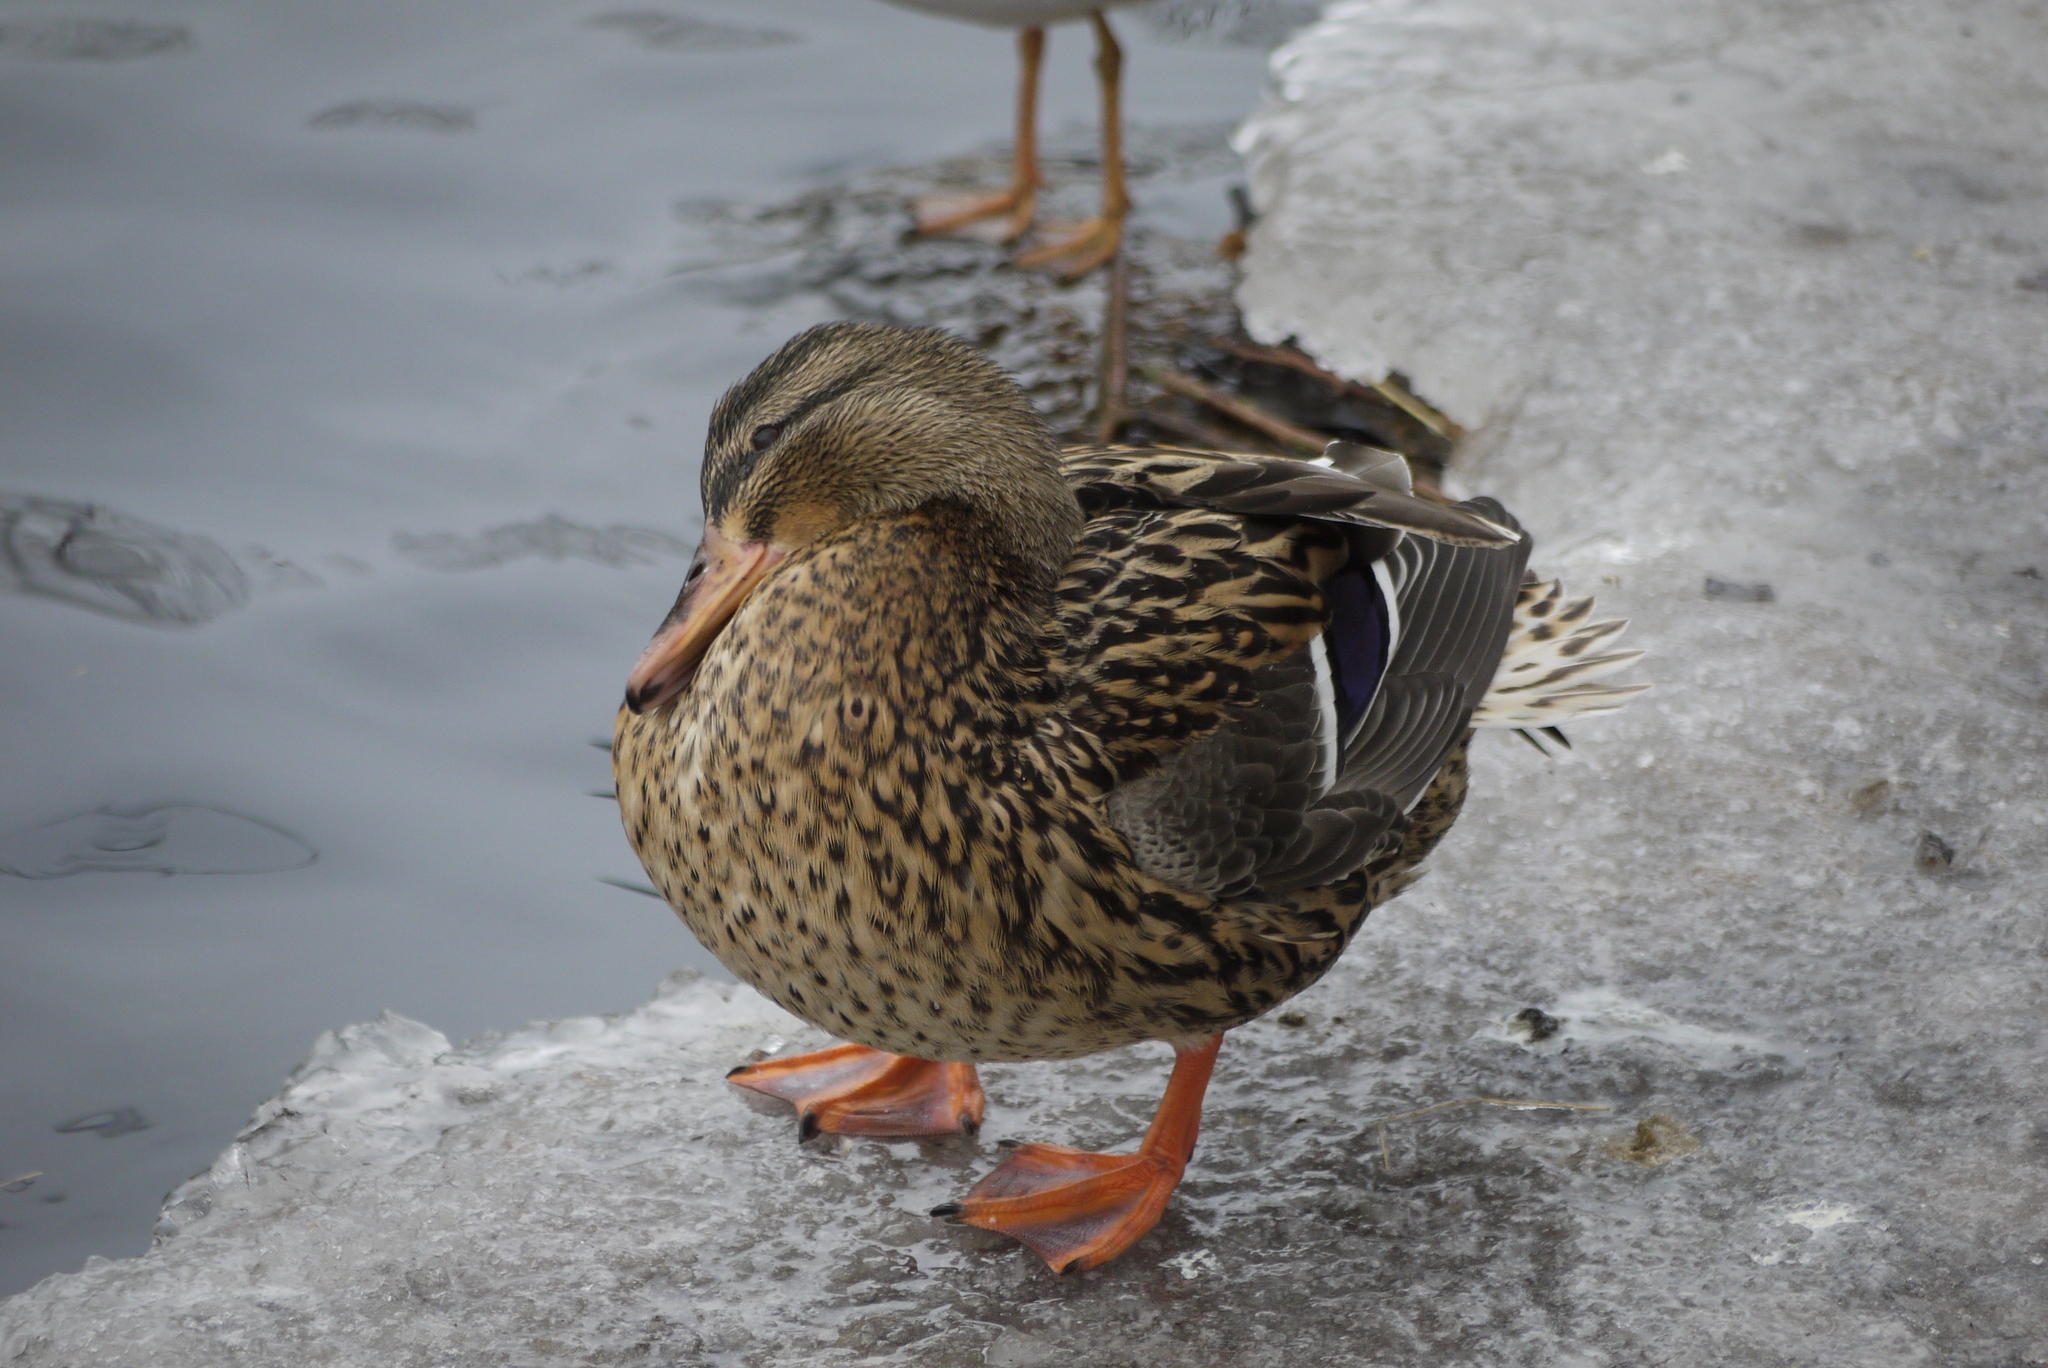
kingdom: Animalia
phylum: Chordata
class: Aves
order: Anseriformes
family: Anatidae
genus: Anas
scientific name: Anas platyrhynchos
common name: Mallard
